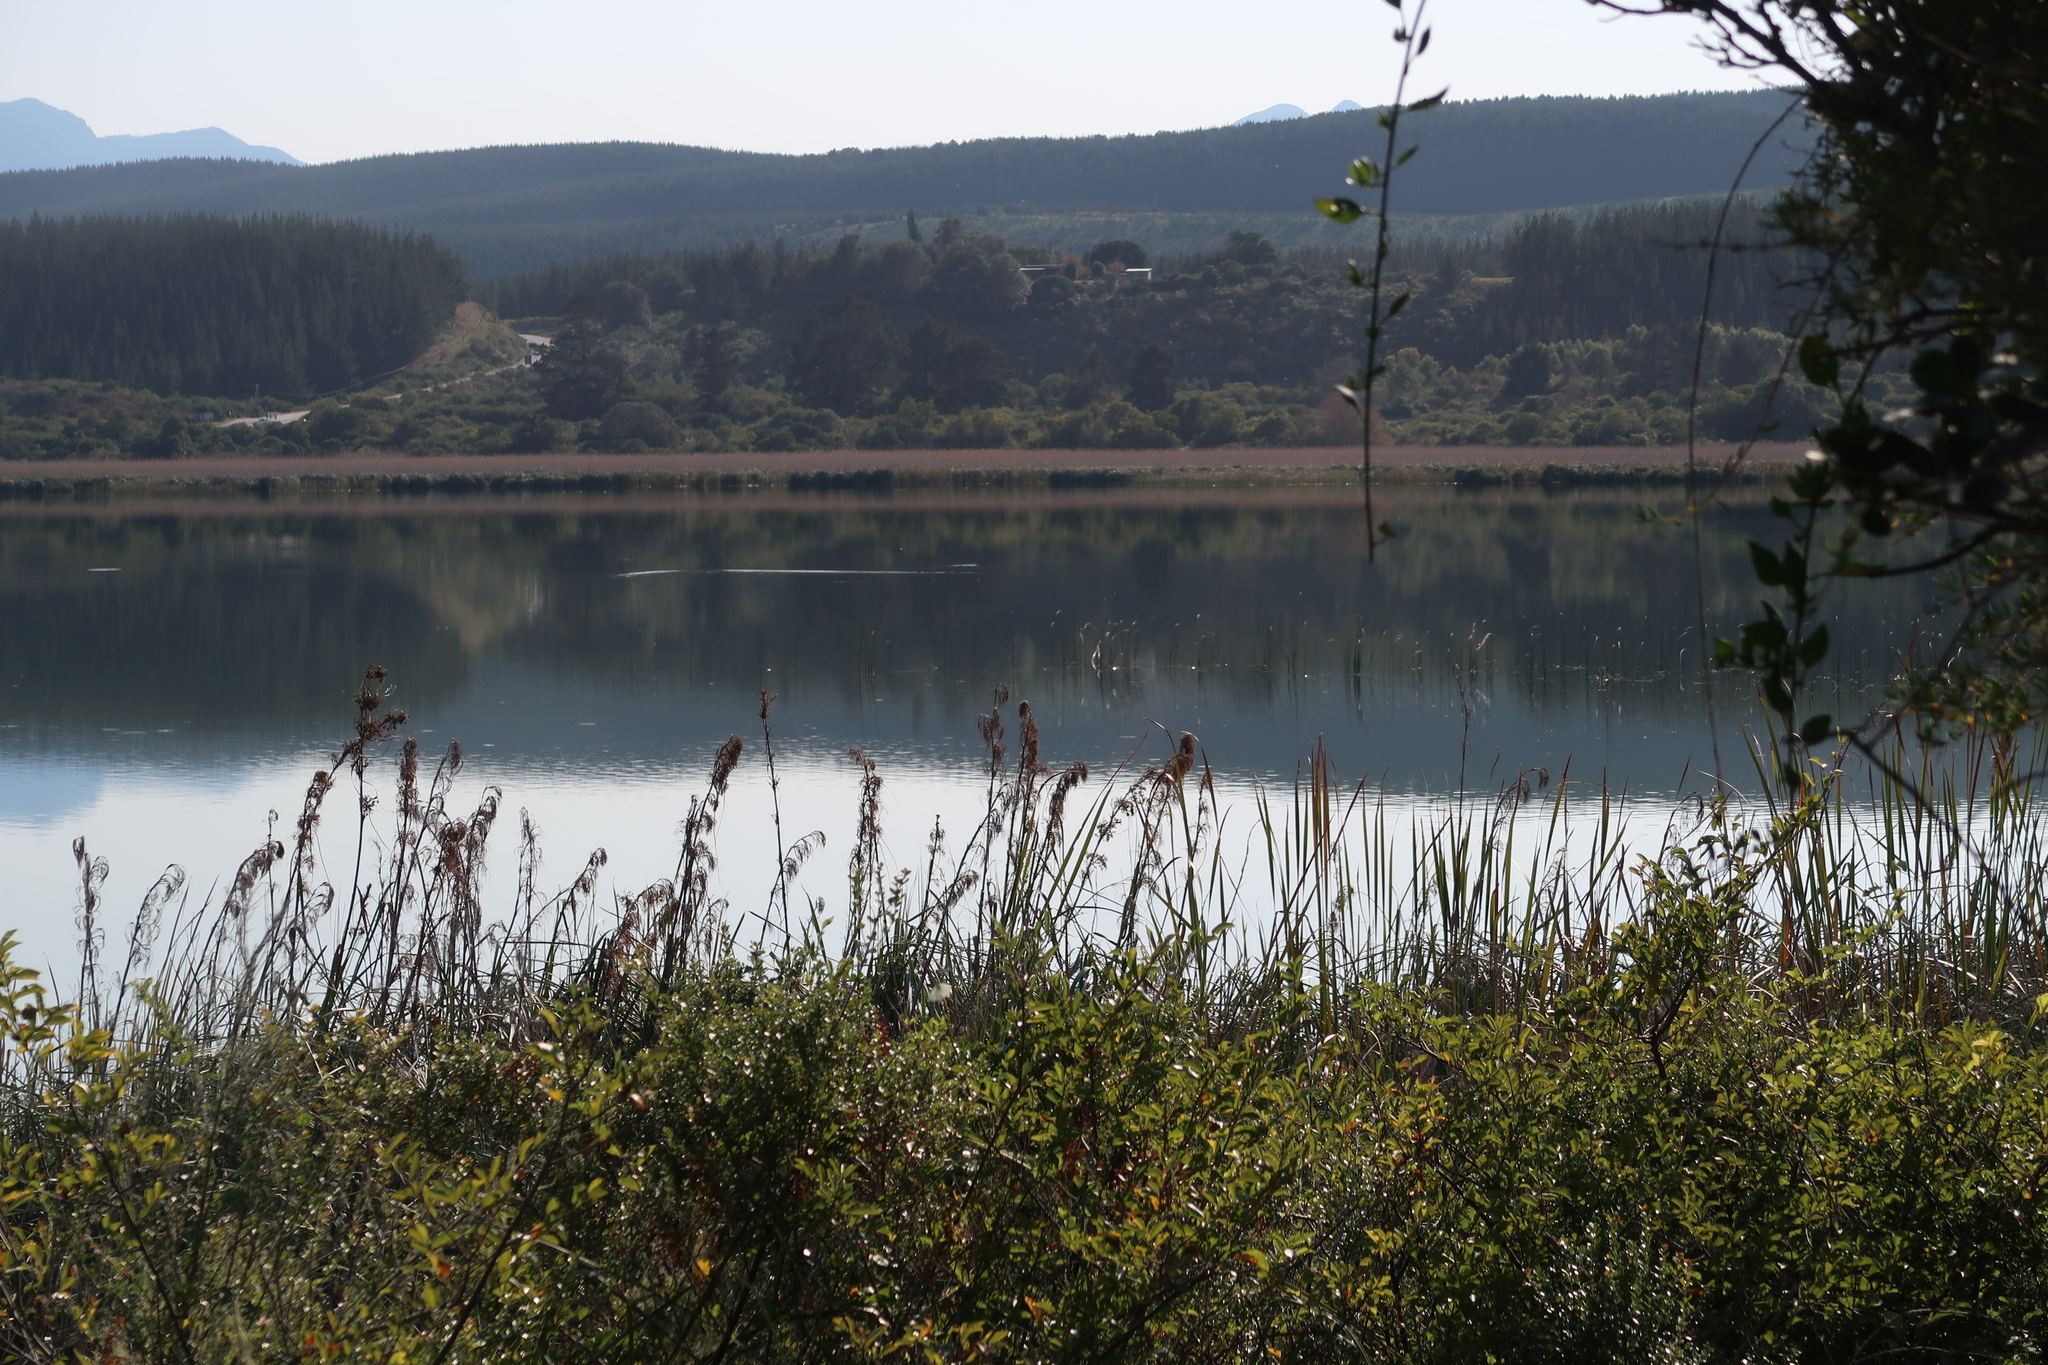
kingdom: Plantae
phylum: Tracheophyta
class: Liliopsida
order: Poales
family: Cyperaceae
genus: Cladium
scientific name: Cladium mariscus
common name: Great fen-sedge
